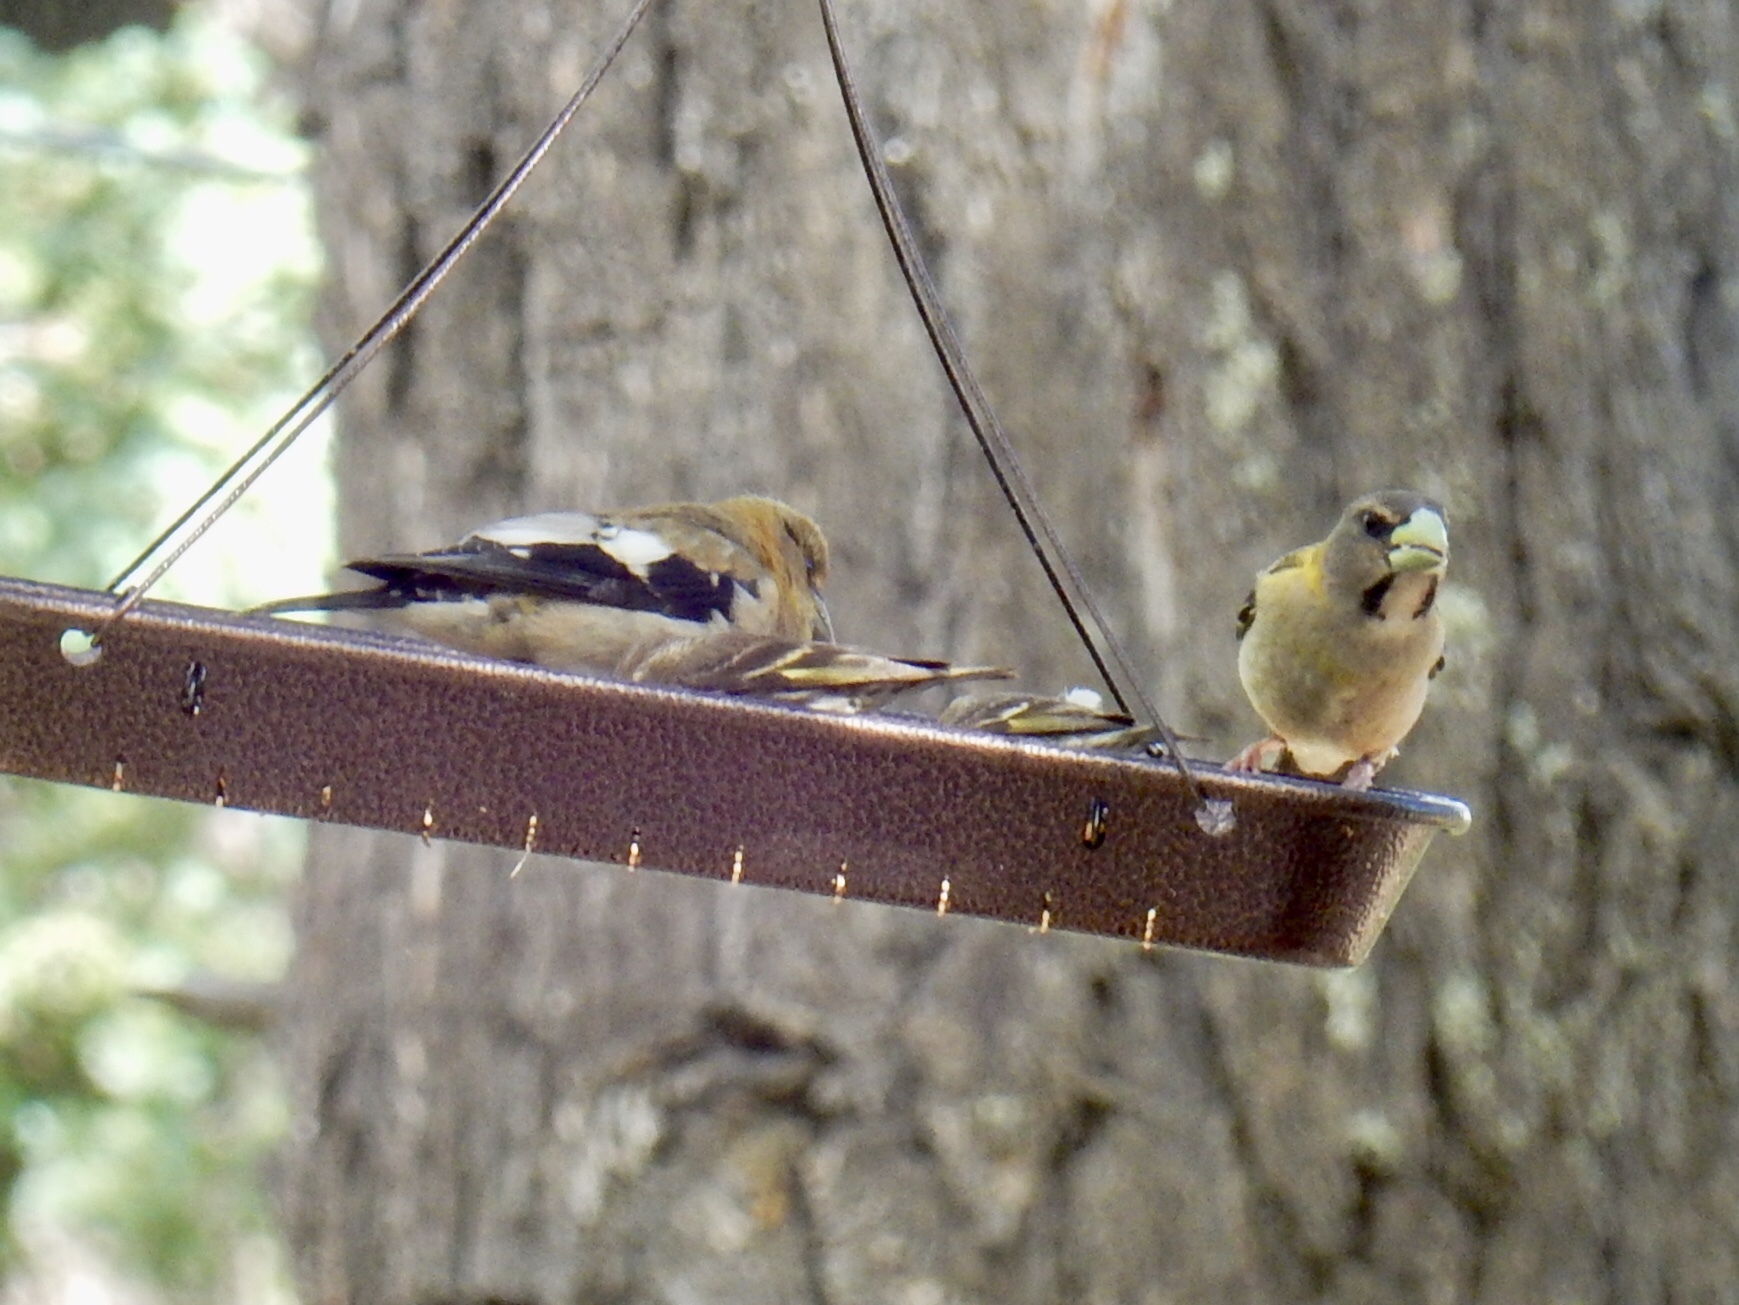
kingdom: Animalia
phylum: Chordata
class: Aves
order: Passeriformes
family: Fringillidae
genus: Hesperiphona
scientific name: Hesperiphona vespertina
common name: Evening grosbeak
